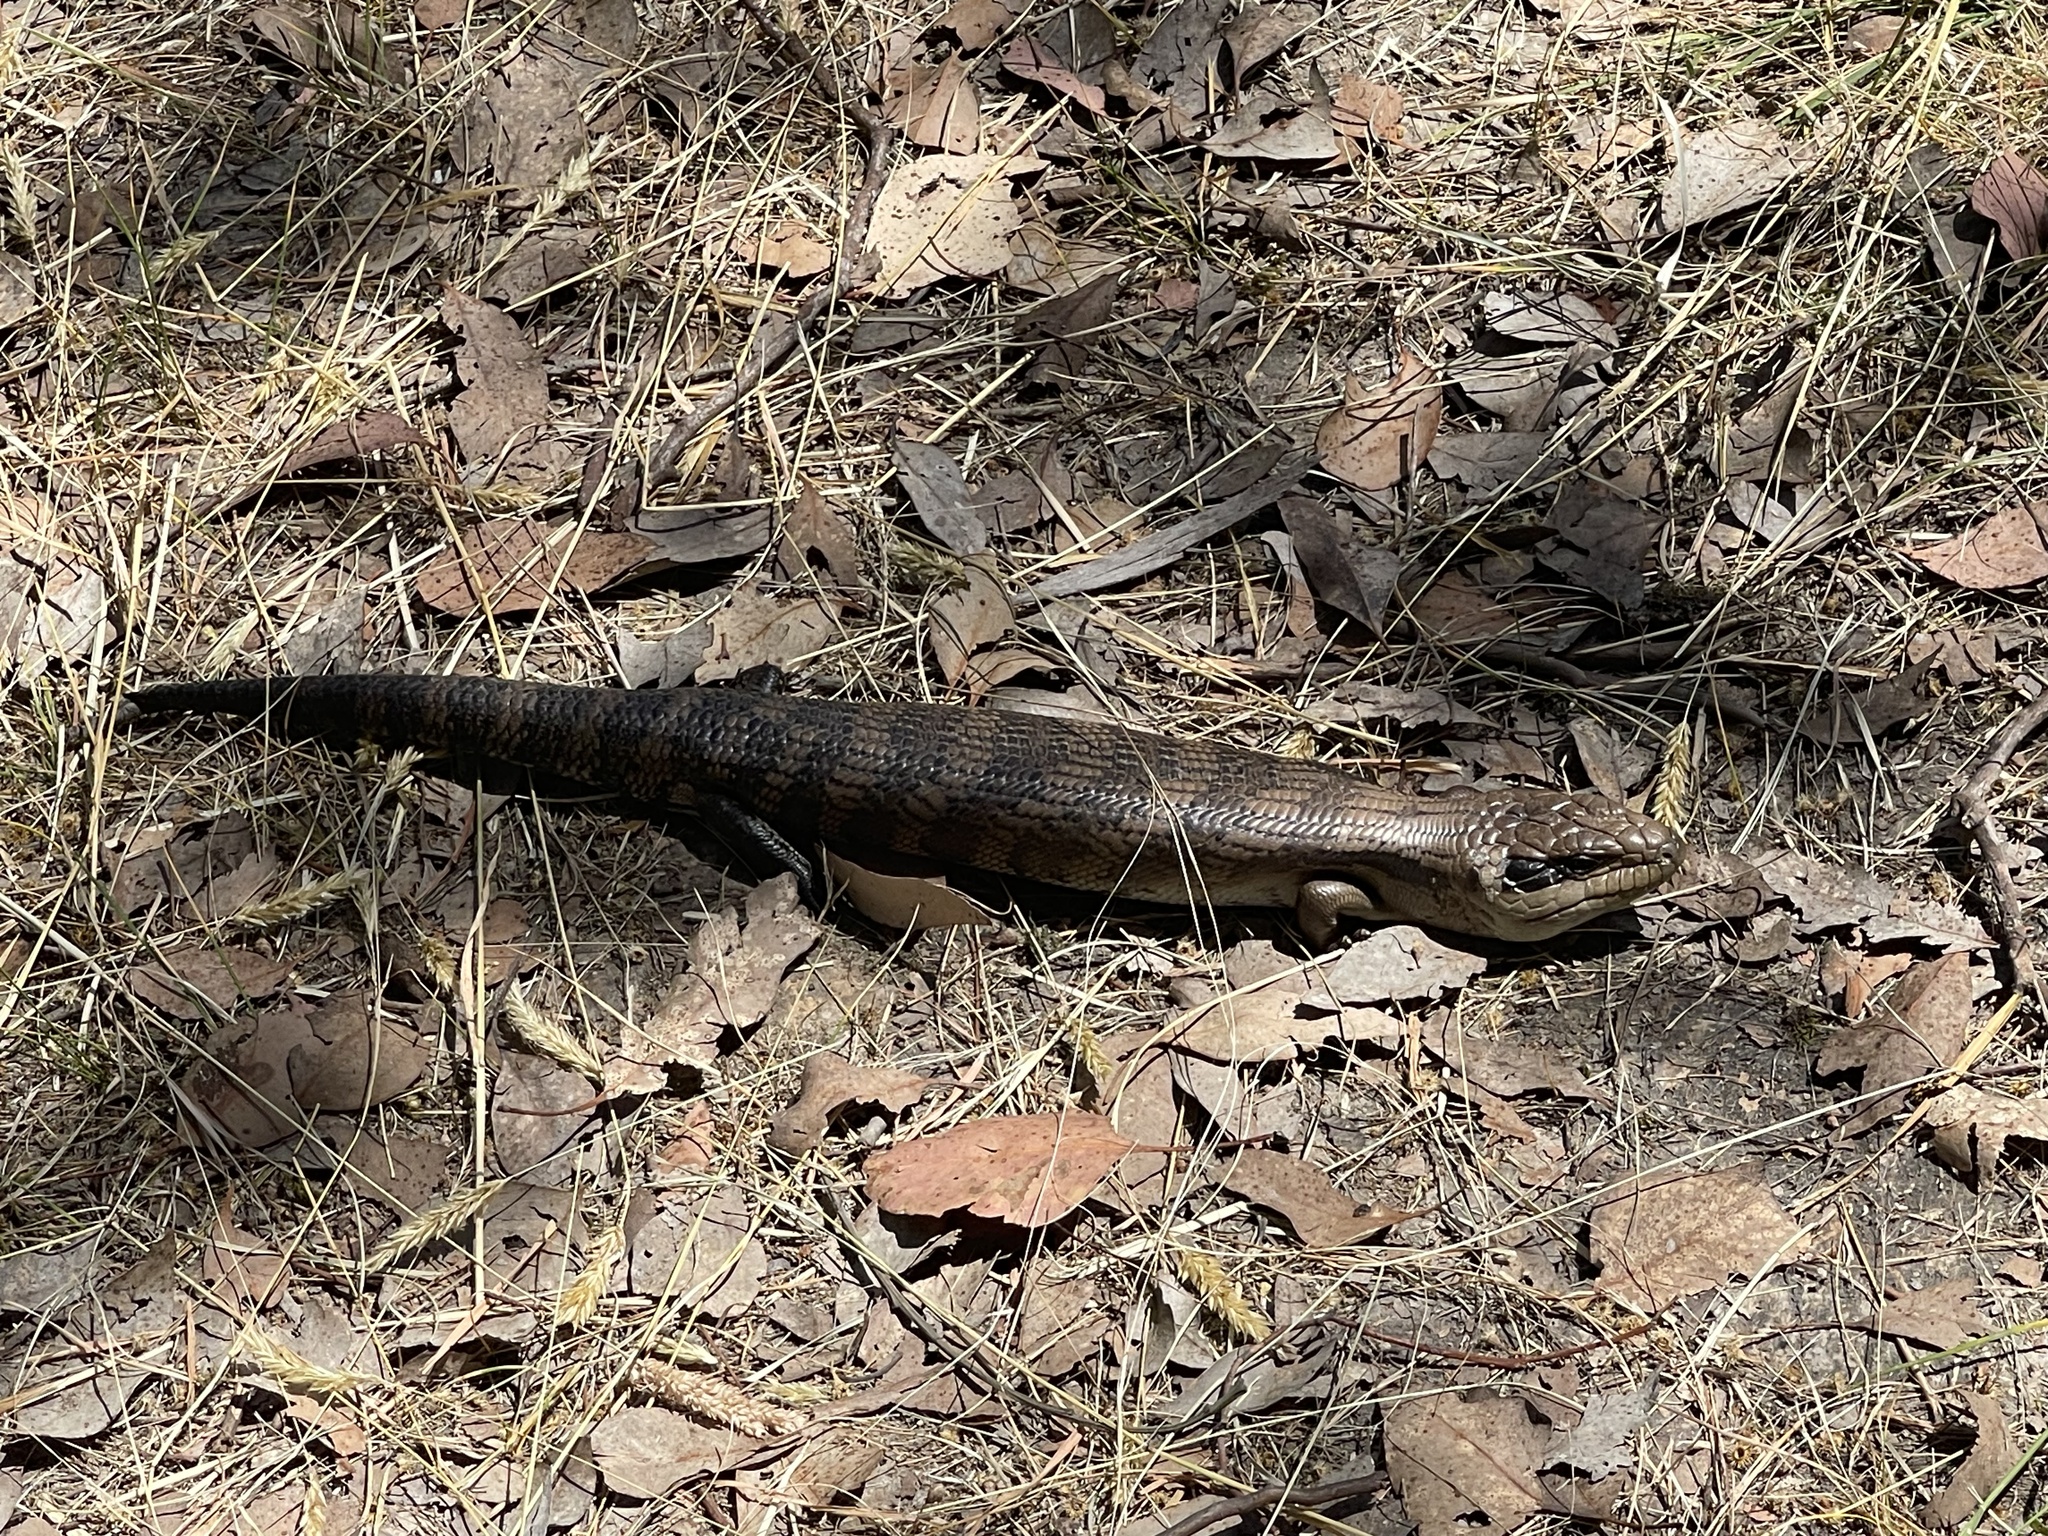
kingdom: Animalia
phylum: Chordata
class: Squamata
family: Scincidae
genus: Tiliqua
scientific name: Tiliqua scincoides
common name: Common bluetongue
